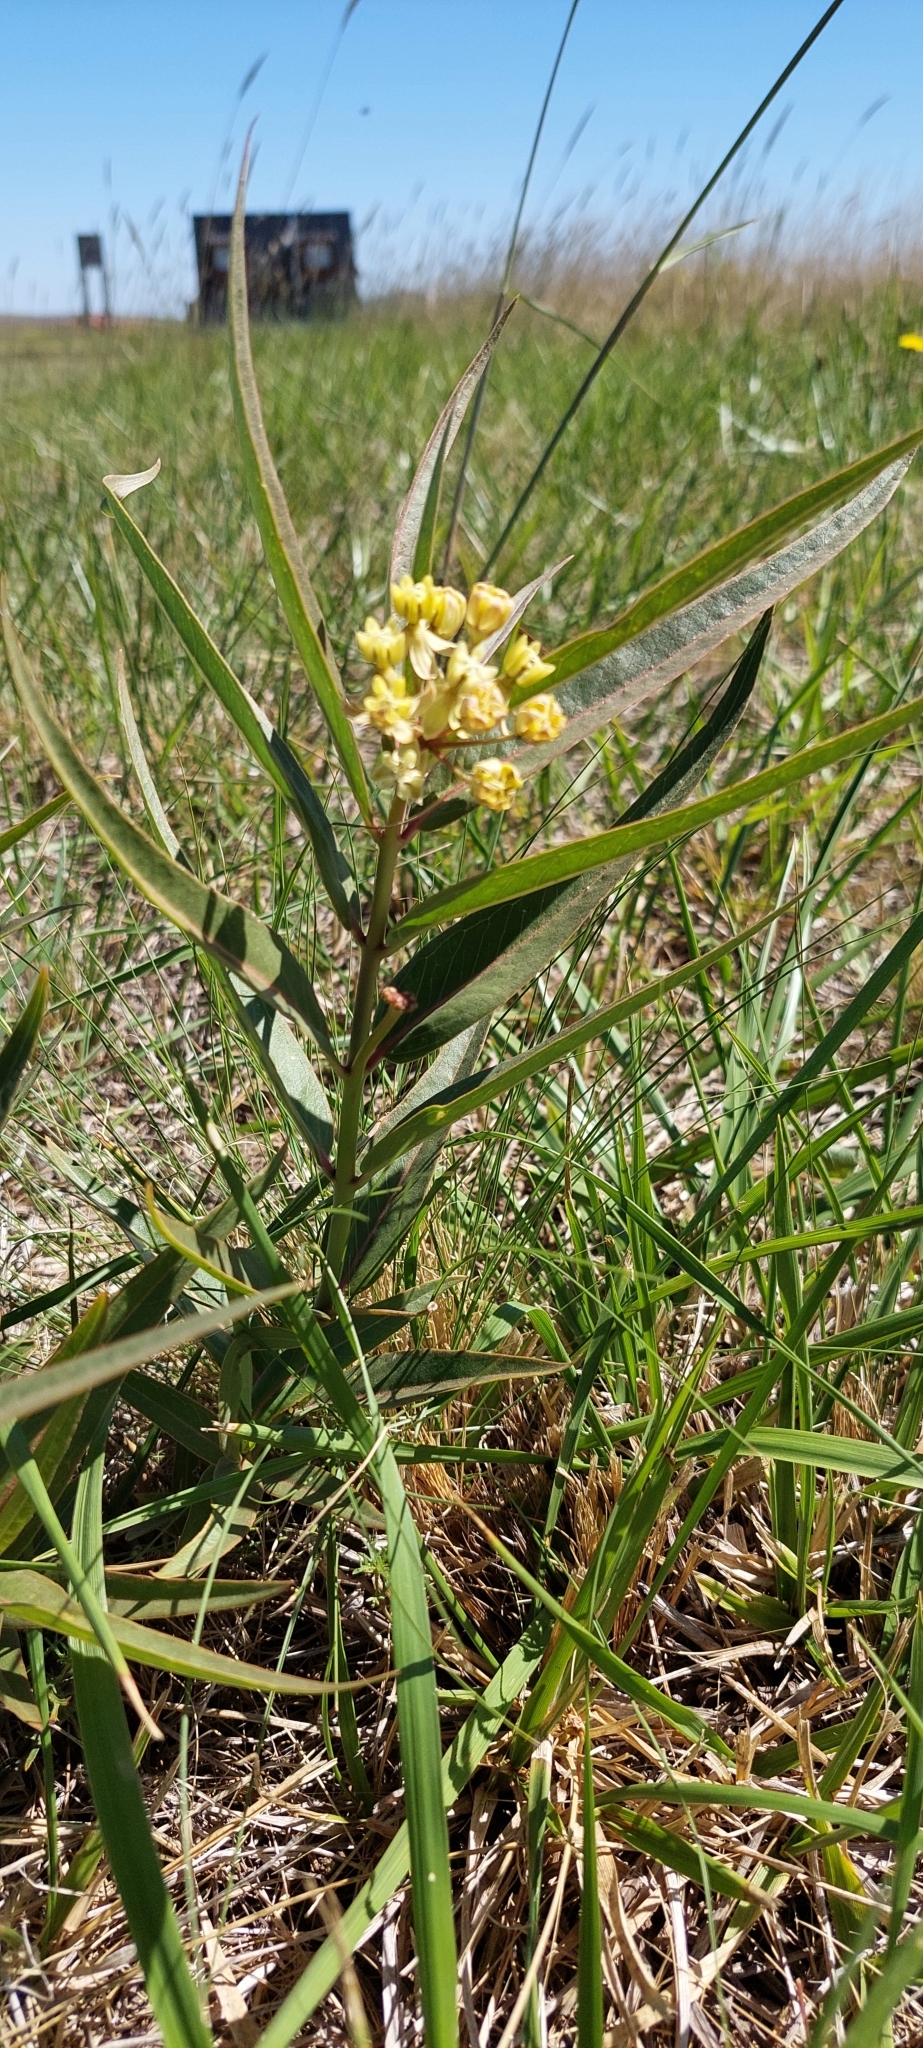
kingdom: Plantae
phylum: Tracheophyta
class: Magnoliopsida
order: Gentianales
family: Apocynaceae
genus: Asclepias
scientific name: Asclepias mellodora
